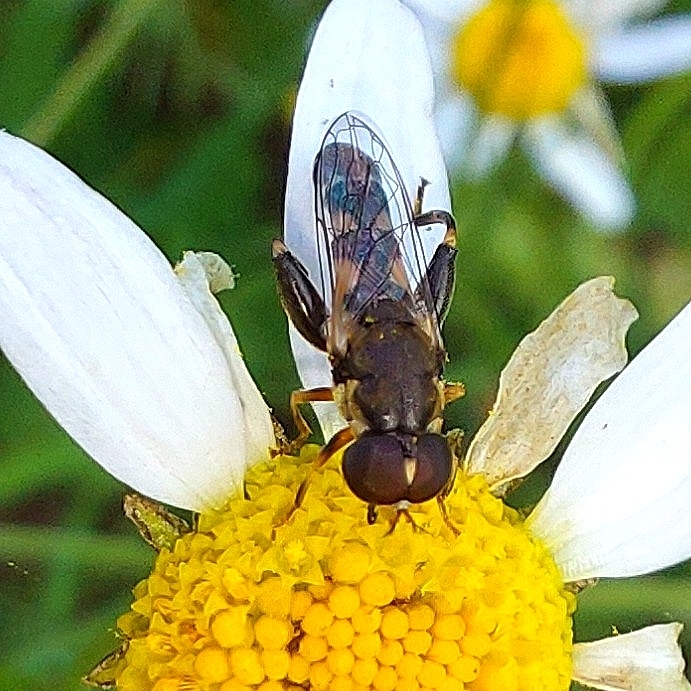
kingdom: Animalia
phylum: Arthropoda
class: Insecta
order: Diptera
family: Syrphidae
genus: Syritta
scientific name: Syritta pipiens
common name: Hover fly
